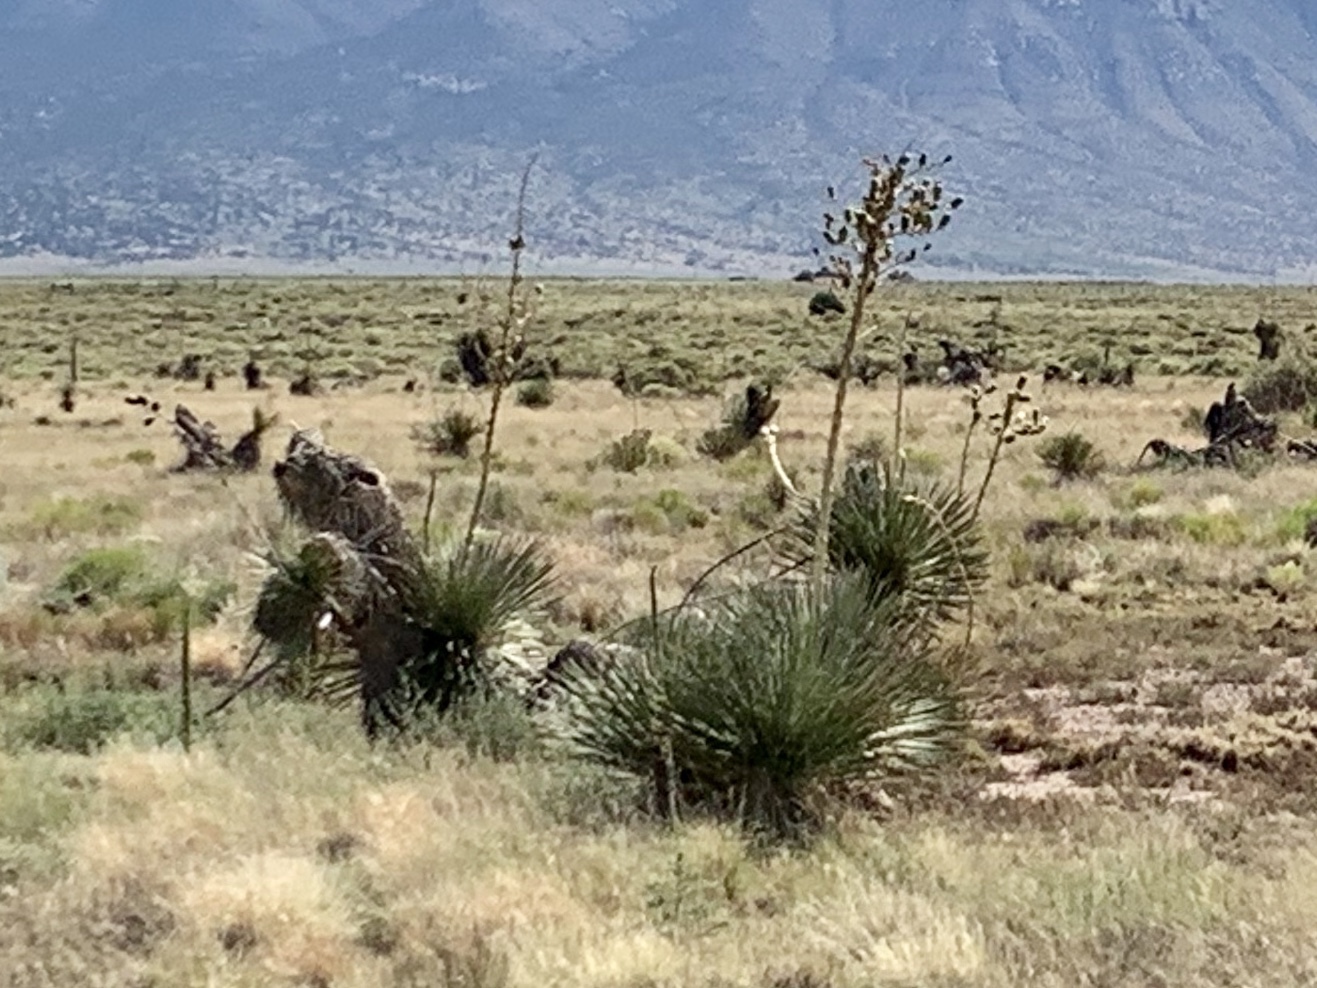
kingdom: Plantae
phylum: Tracheophyta
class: Liliopsida
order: Asparagales
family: Asparagaceae
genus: Yucca
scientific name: Yucca elata
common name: Palmella
